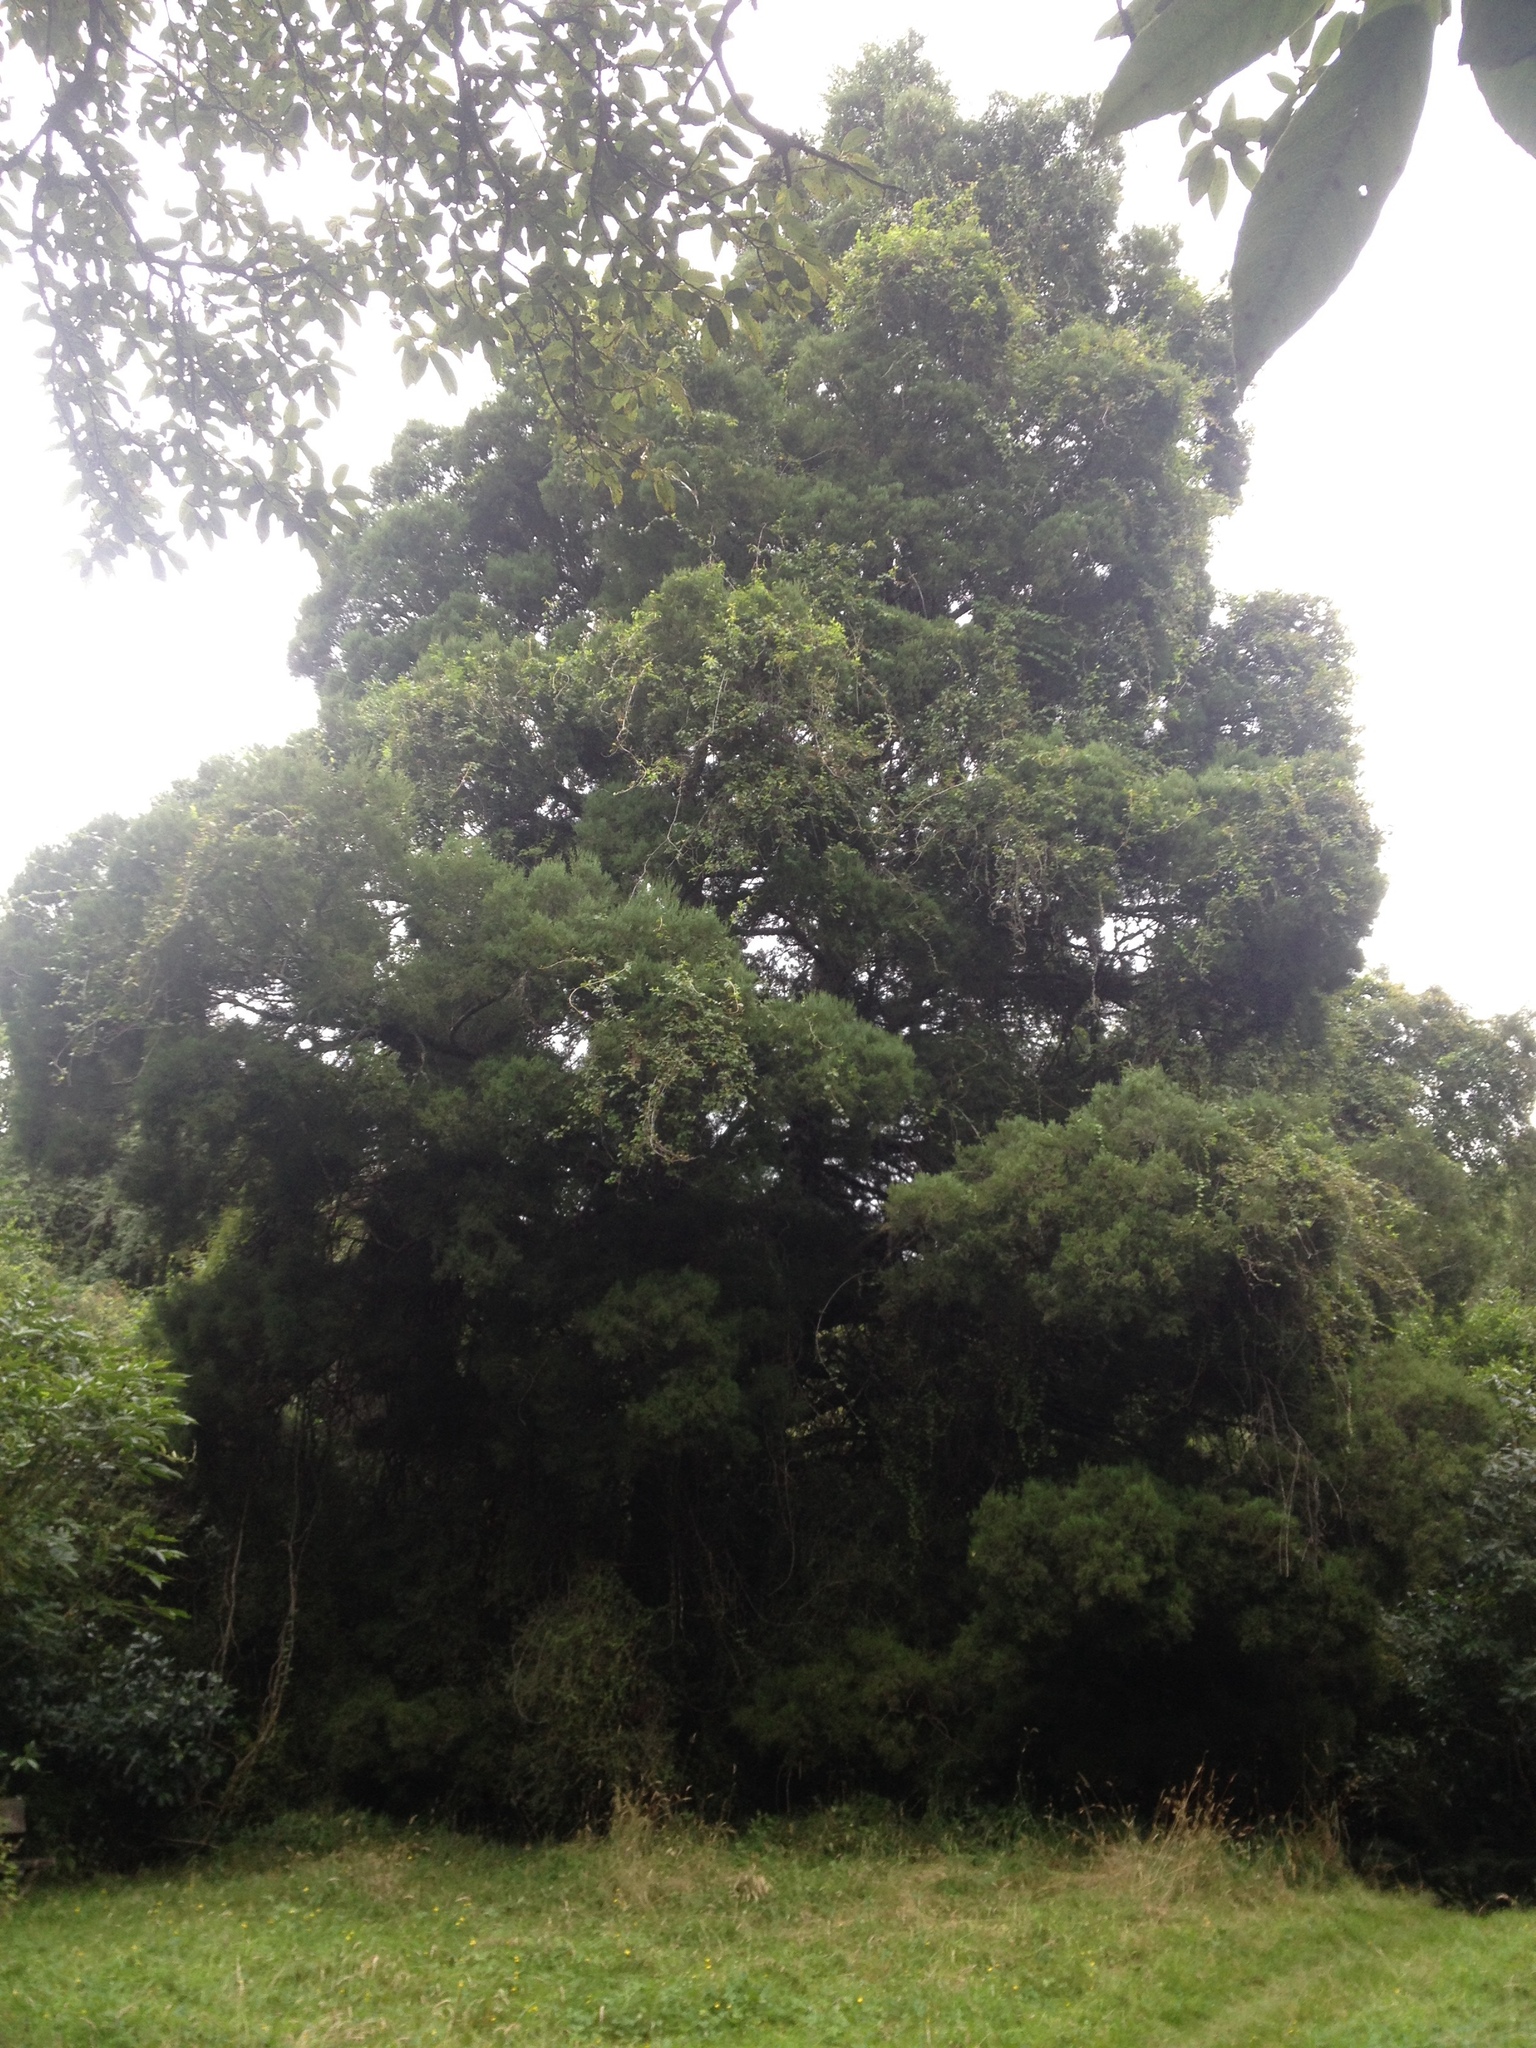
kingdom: Plantae
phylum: Tracheophyta
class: Pinopsida
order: Pinales
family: Podocarpaceae
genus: Dacrycarpus
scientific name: Dacrycarpus dacrydioides
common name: White pine
